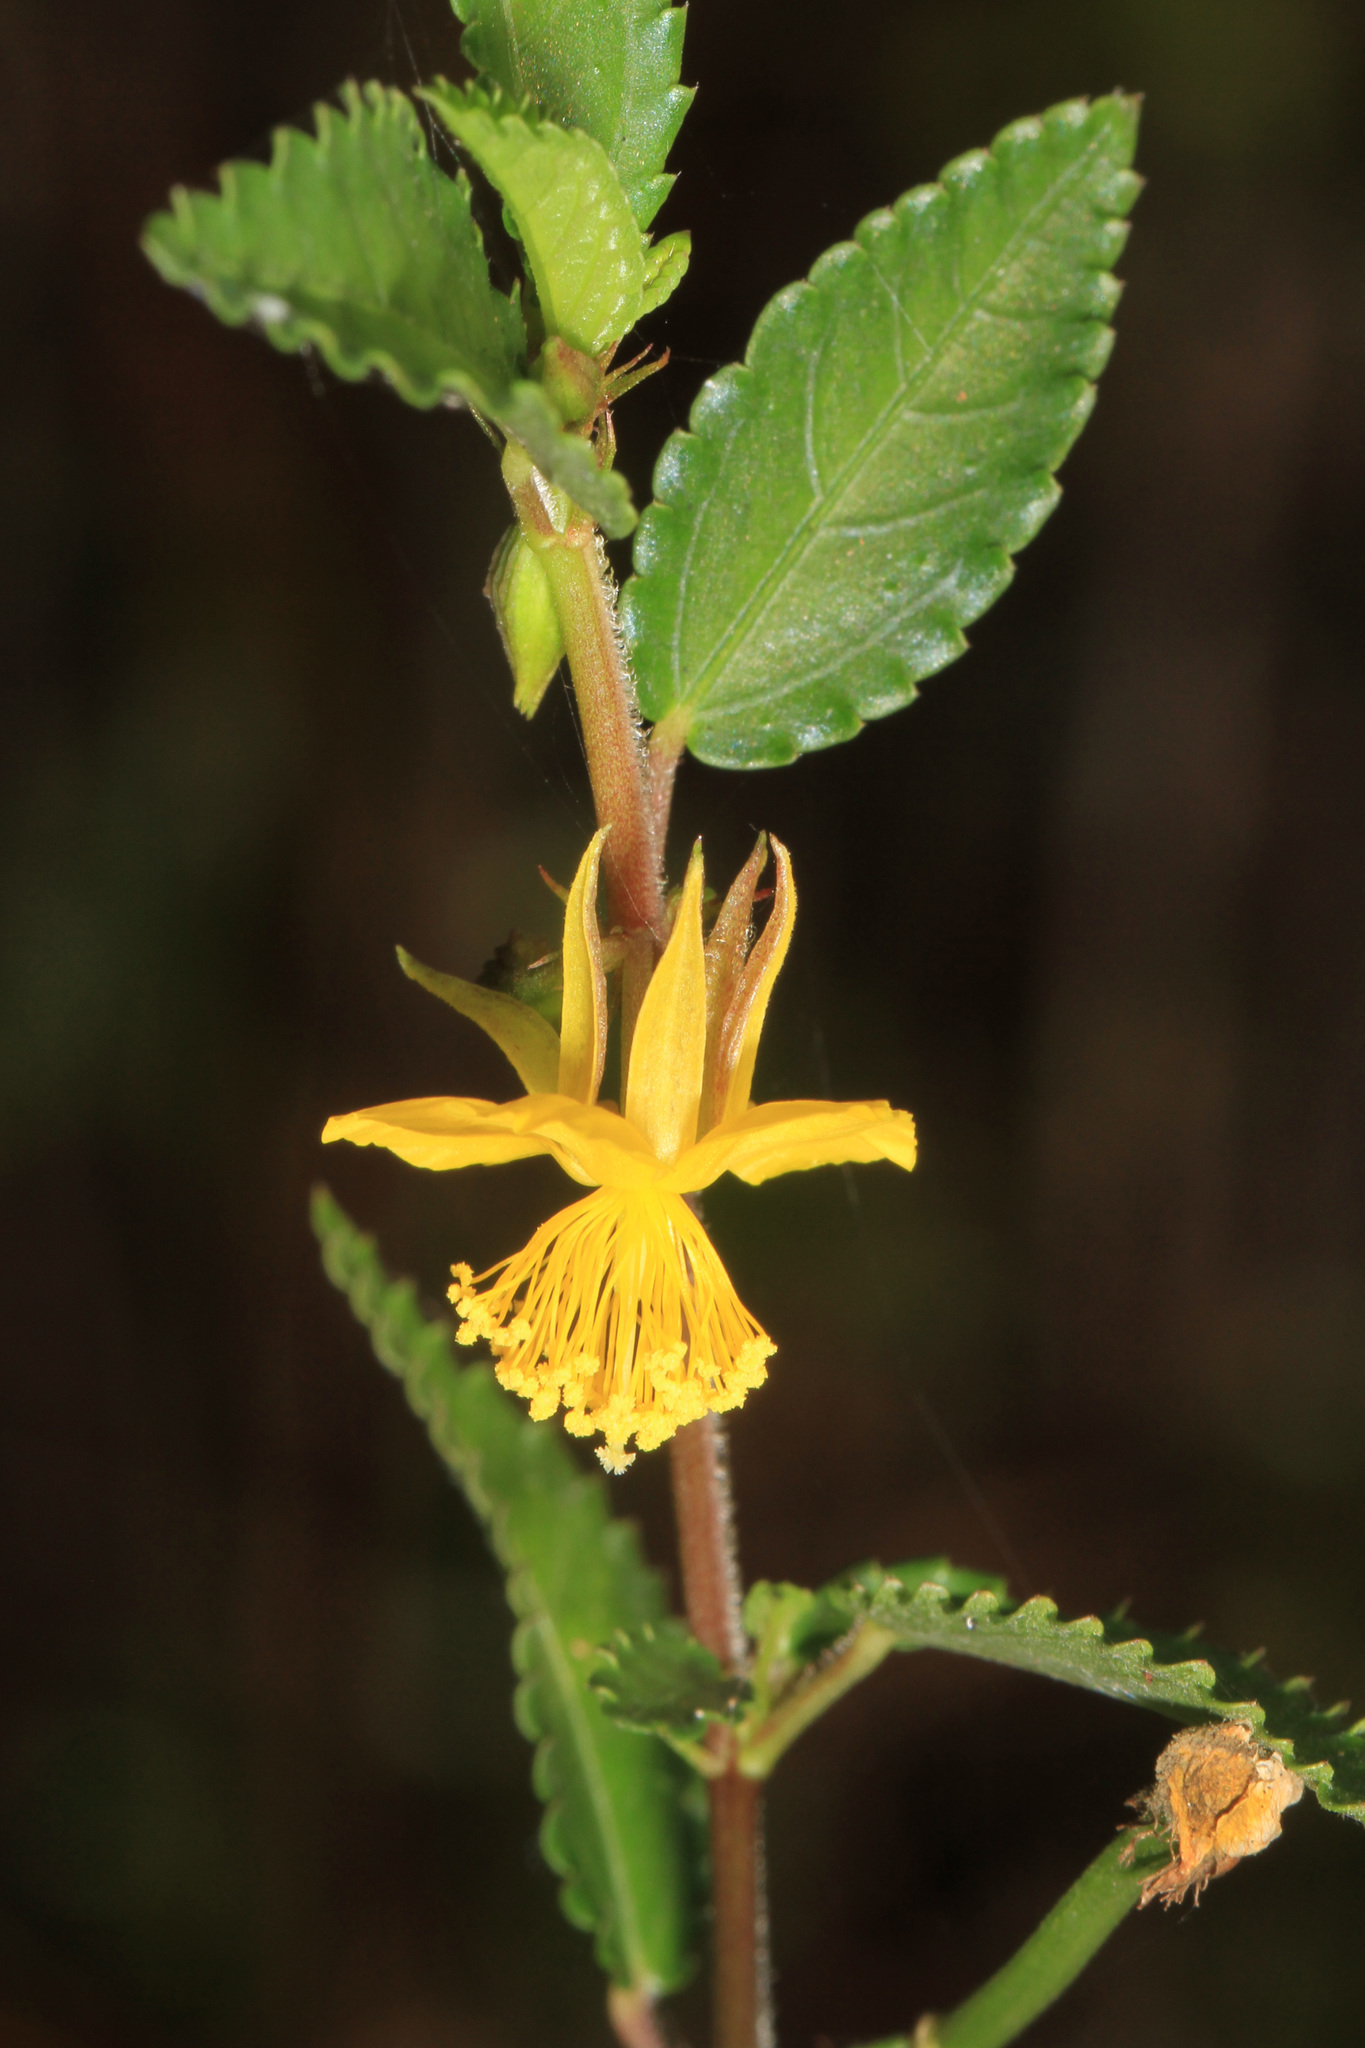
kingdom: Plantae
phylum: Tracheophyta
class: Magnoliopsida
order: Malvales
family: Malvaceae
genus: Corchorus
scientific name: Corchorus siliquosus
